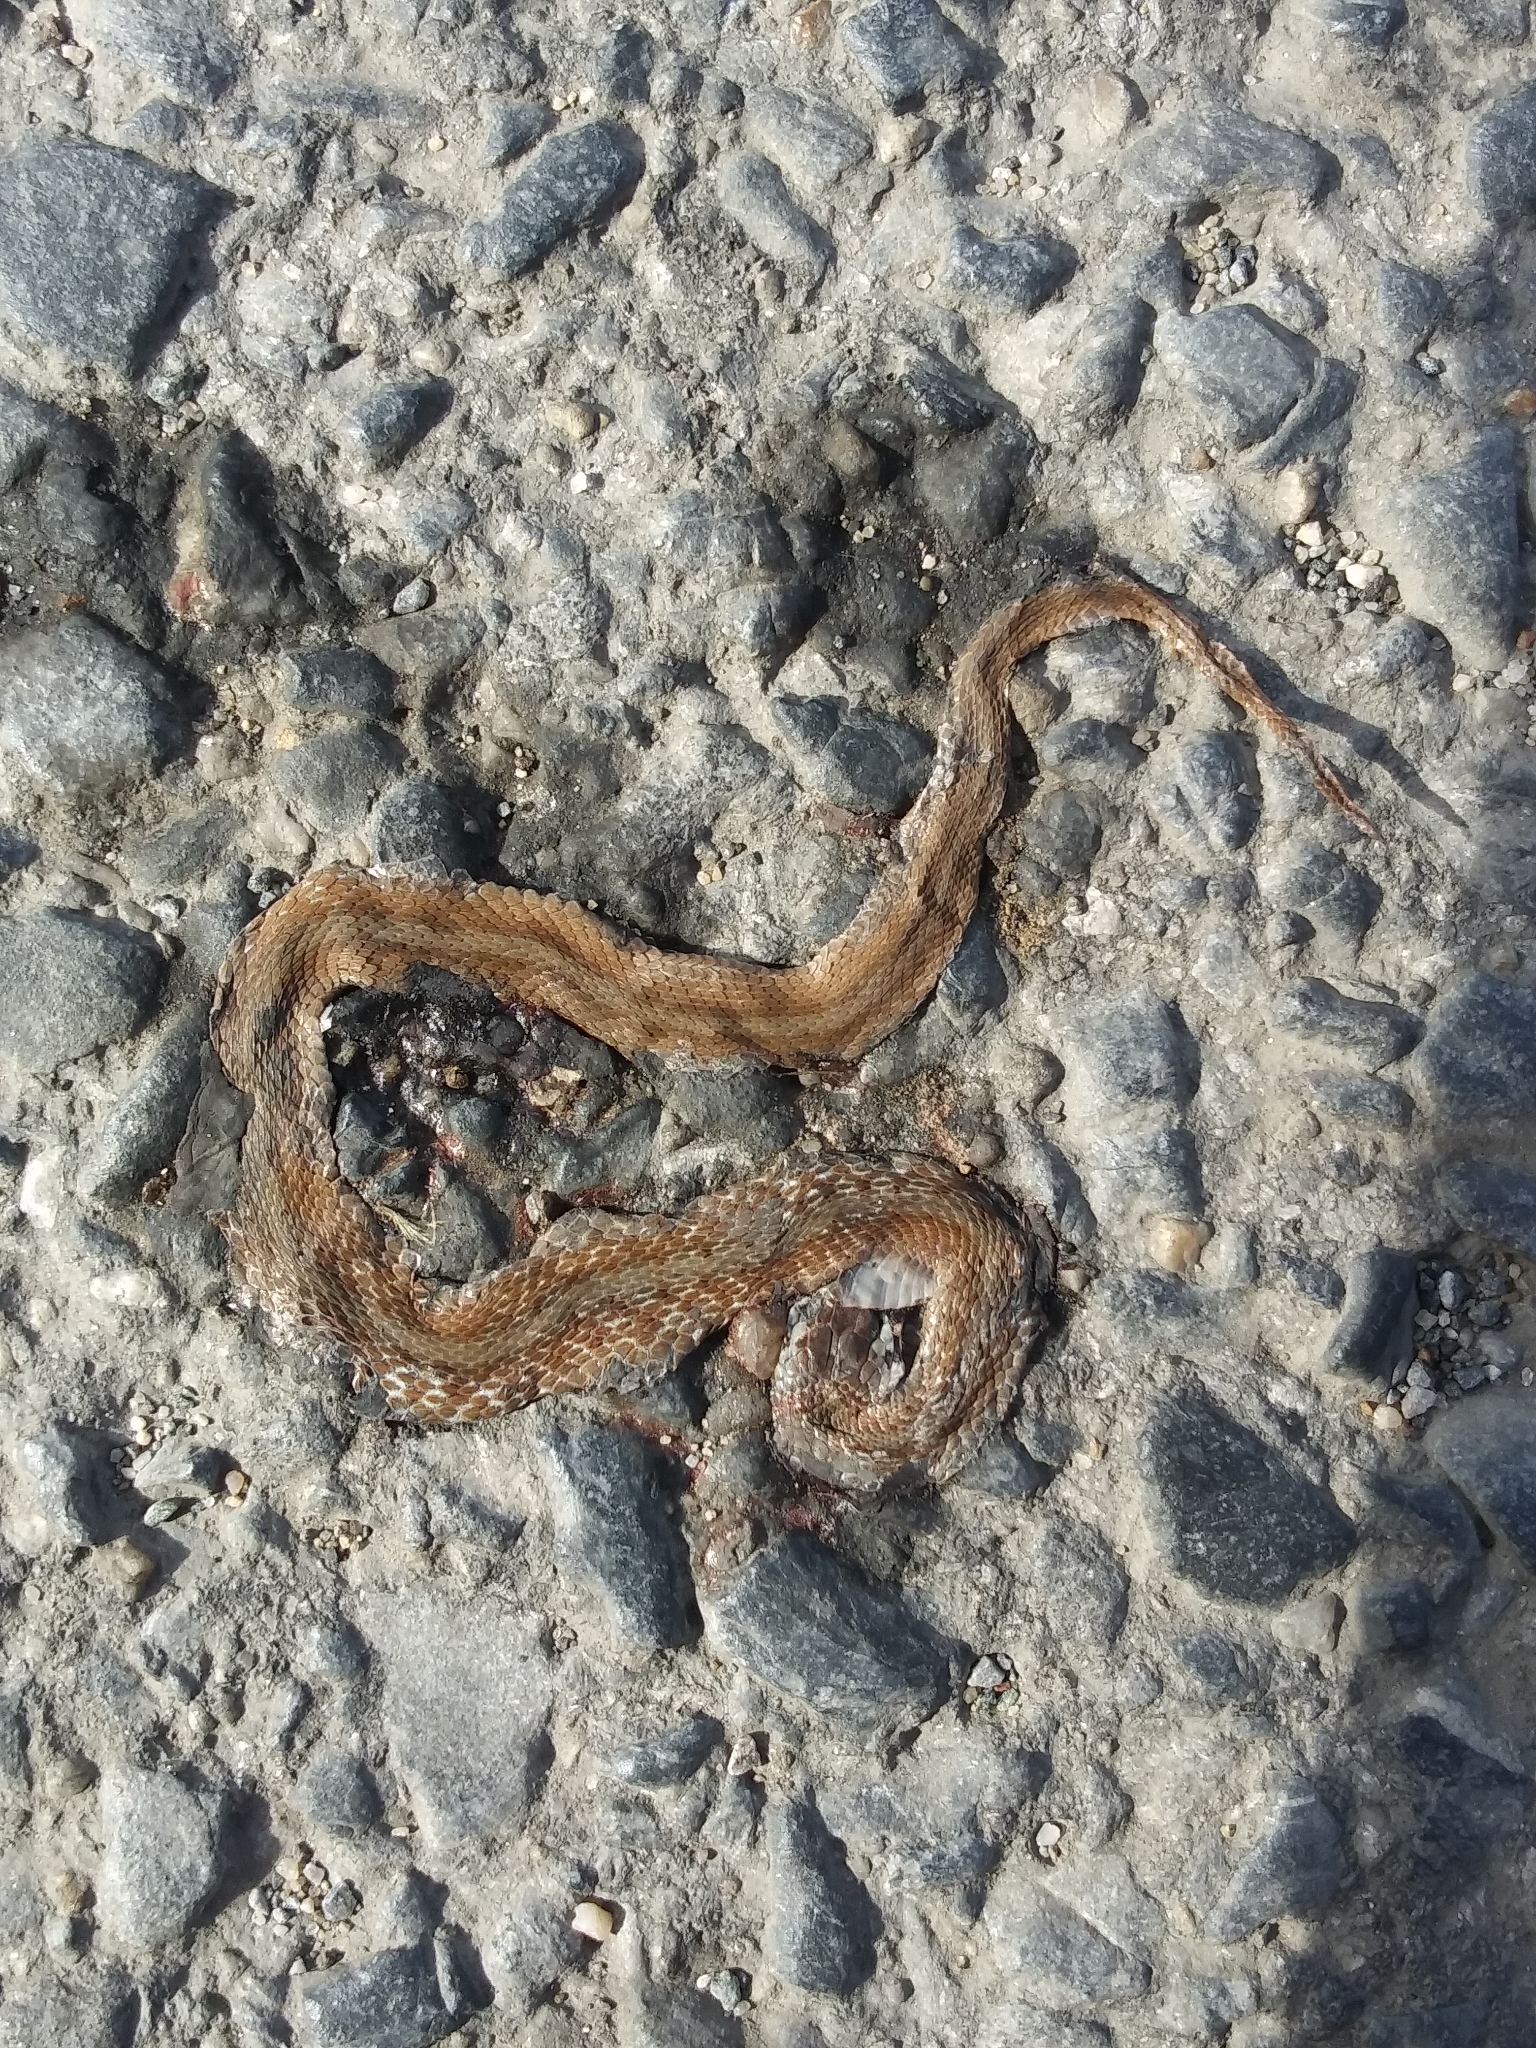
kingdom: Animalia
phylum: Chordata
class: Squamata
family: Colubridae
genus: Storeria
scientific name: Storeria dekayi
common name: (dekay’s) brown snake
